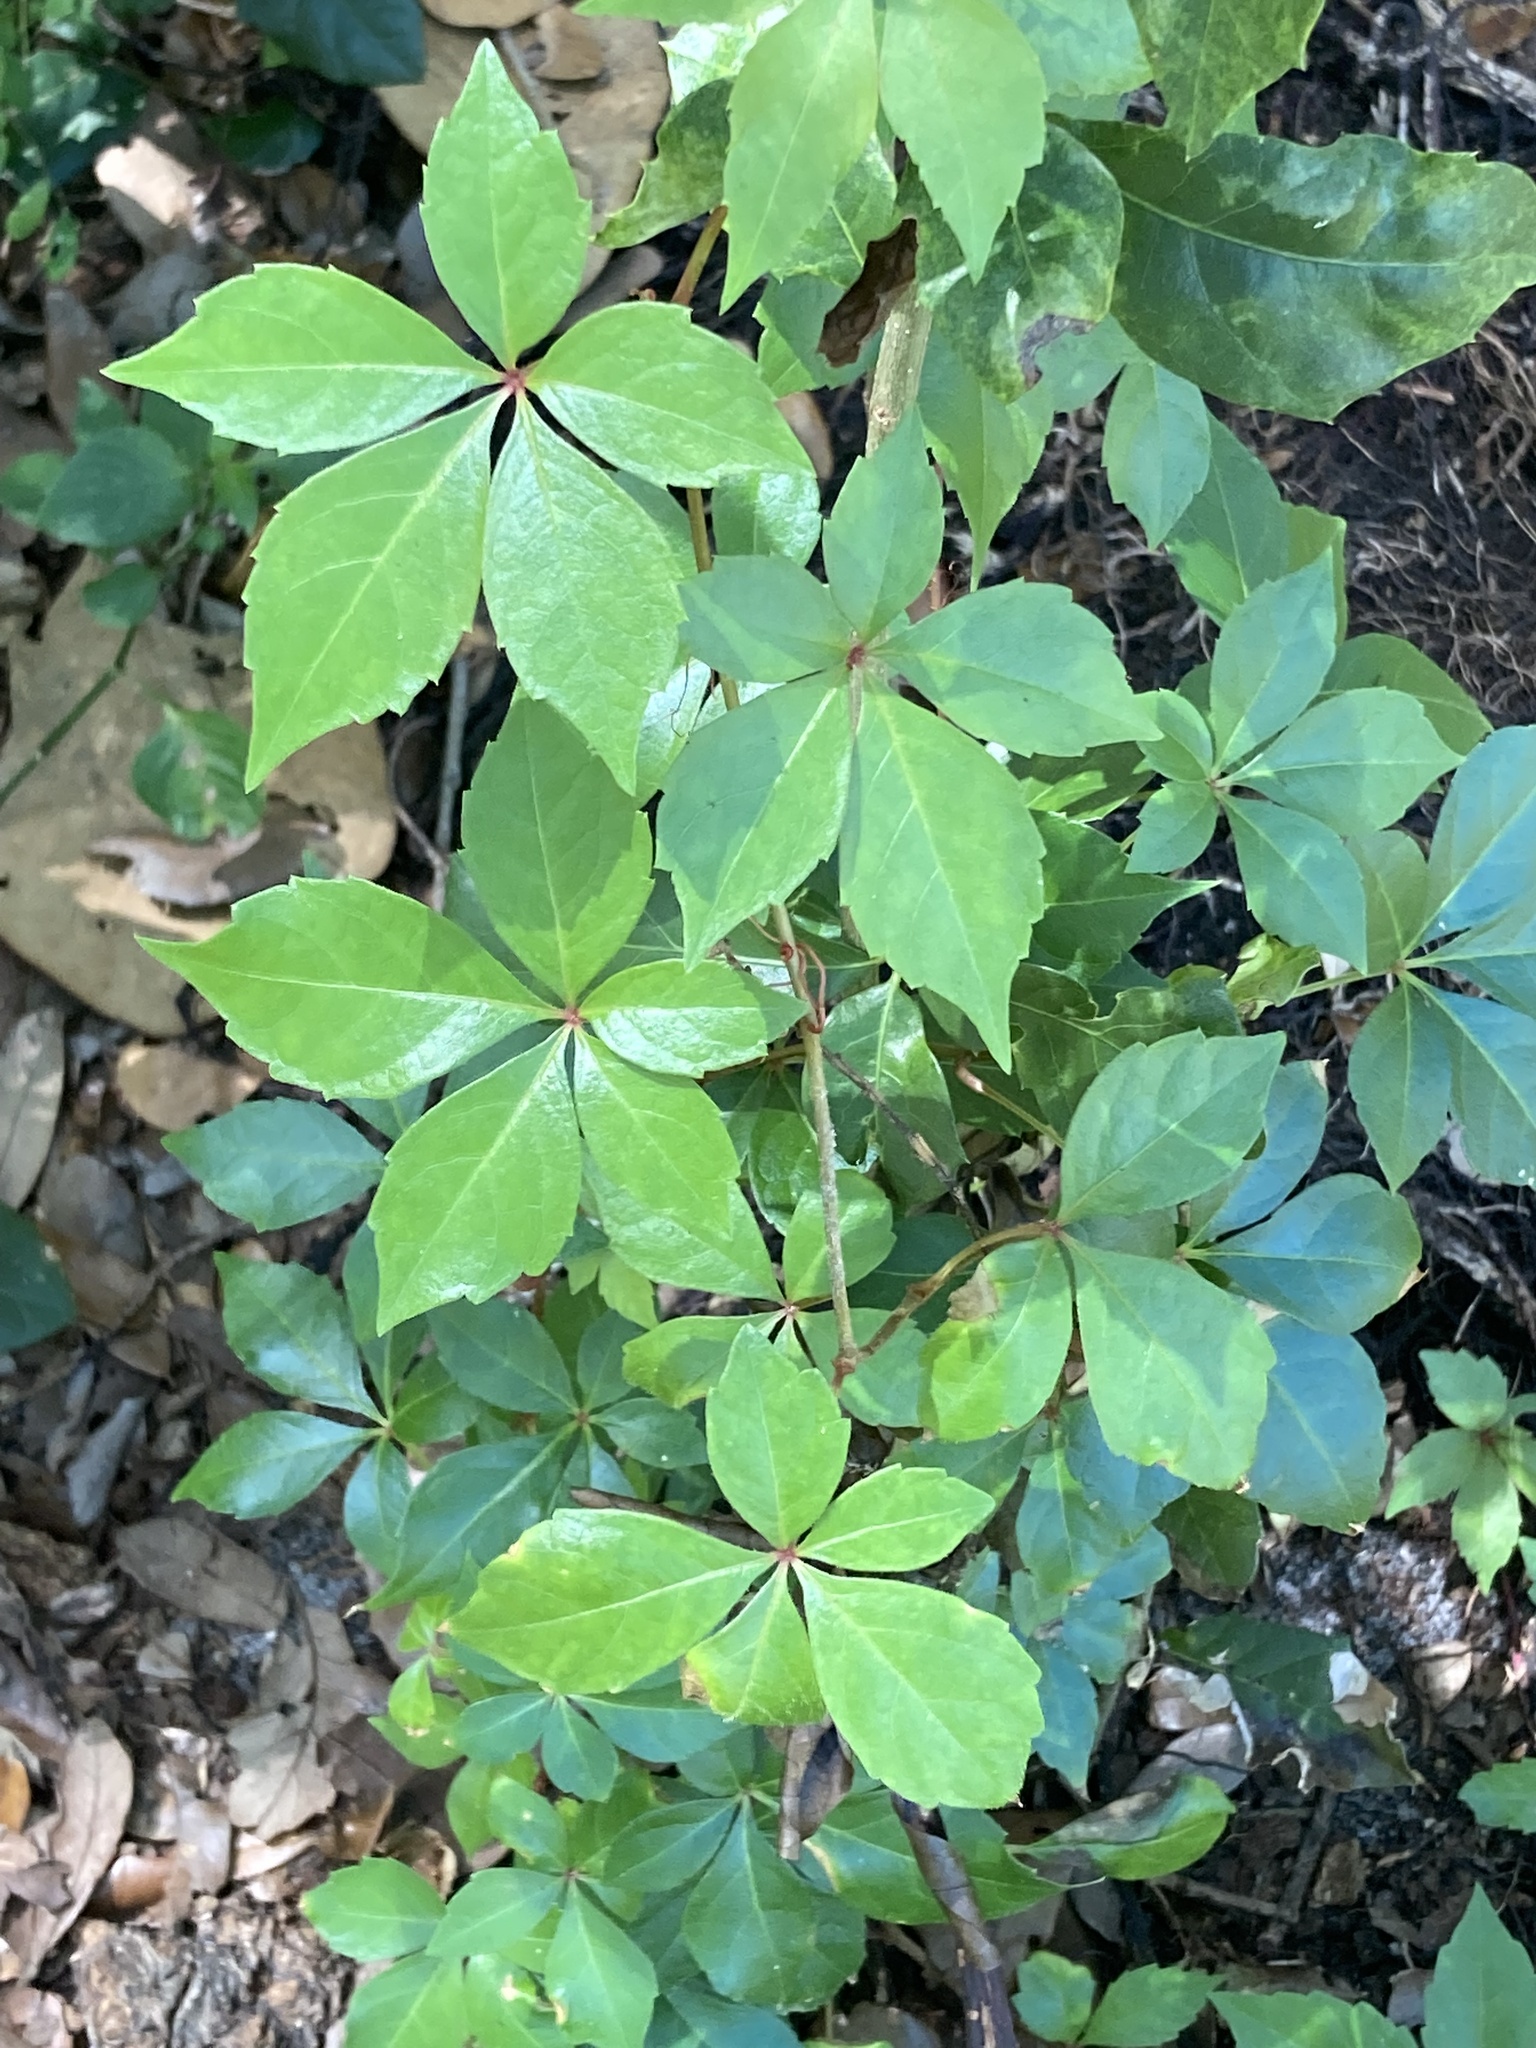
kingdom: Plantae
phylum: Tracheophyta
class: Magnoliopsida
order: Vitales
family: Vitaceae
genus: Parthenocissus
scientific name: Parthenocissus quinquefolia
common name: Virginia-creeper
